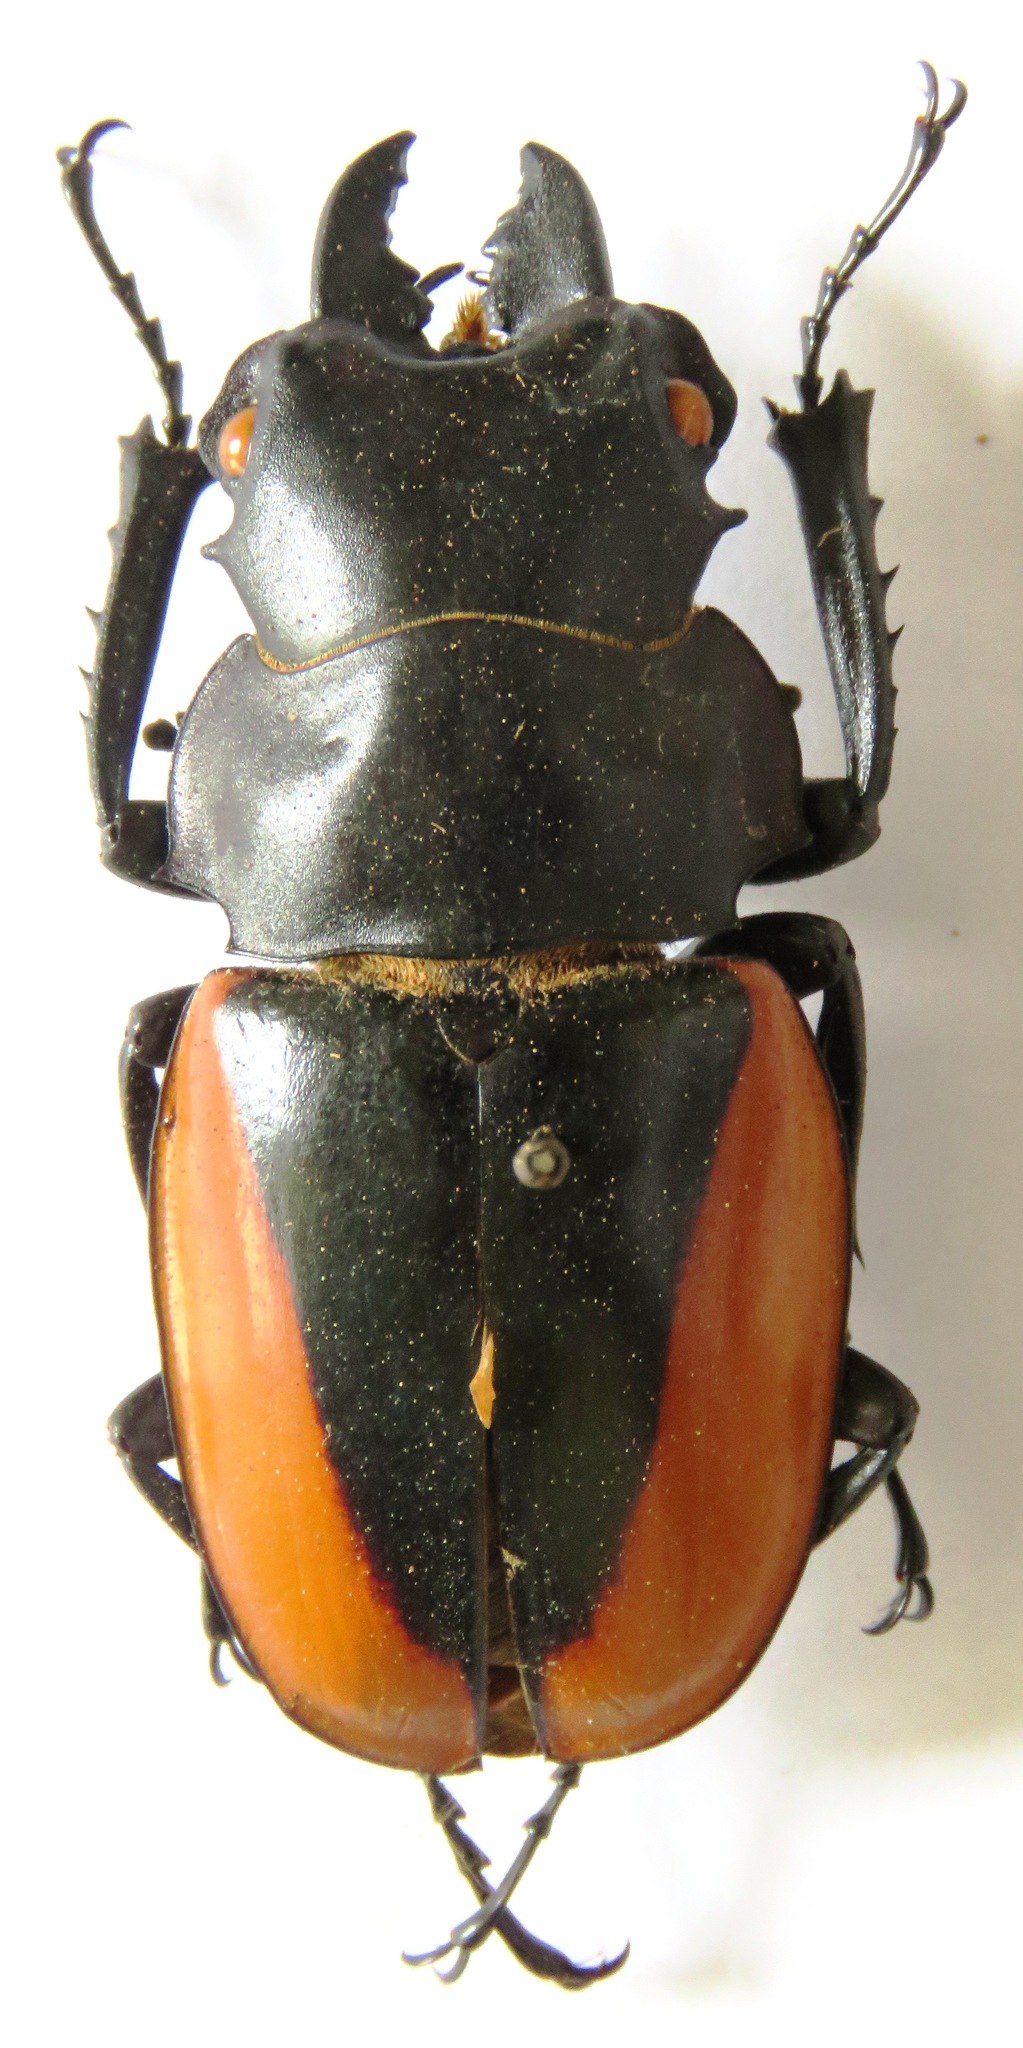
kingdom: Animalia
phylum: Arthropoda
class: Insecta
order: Coleoptera
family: Lucanidae
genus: Odontolabis
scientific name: Odontolabis cuvera
